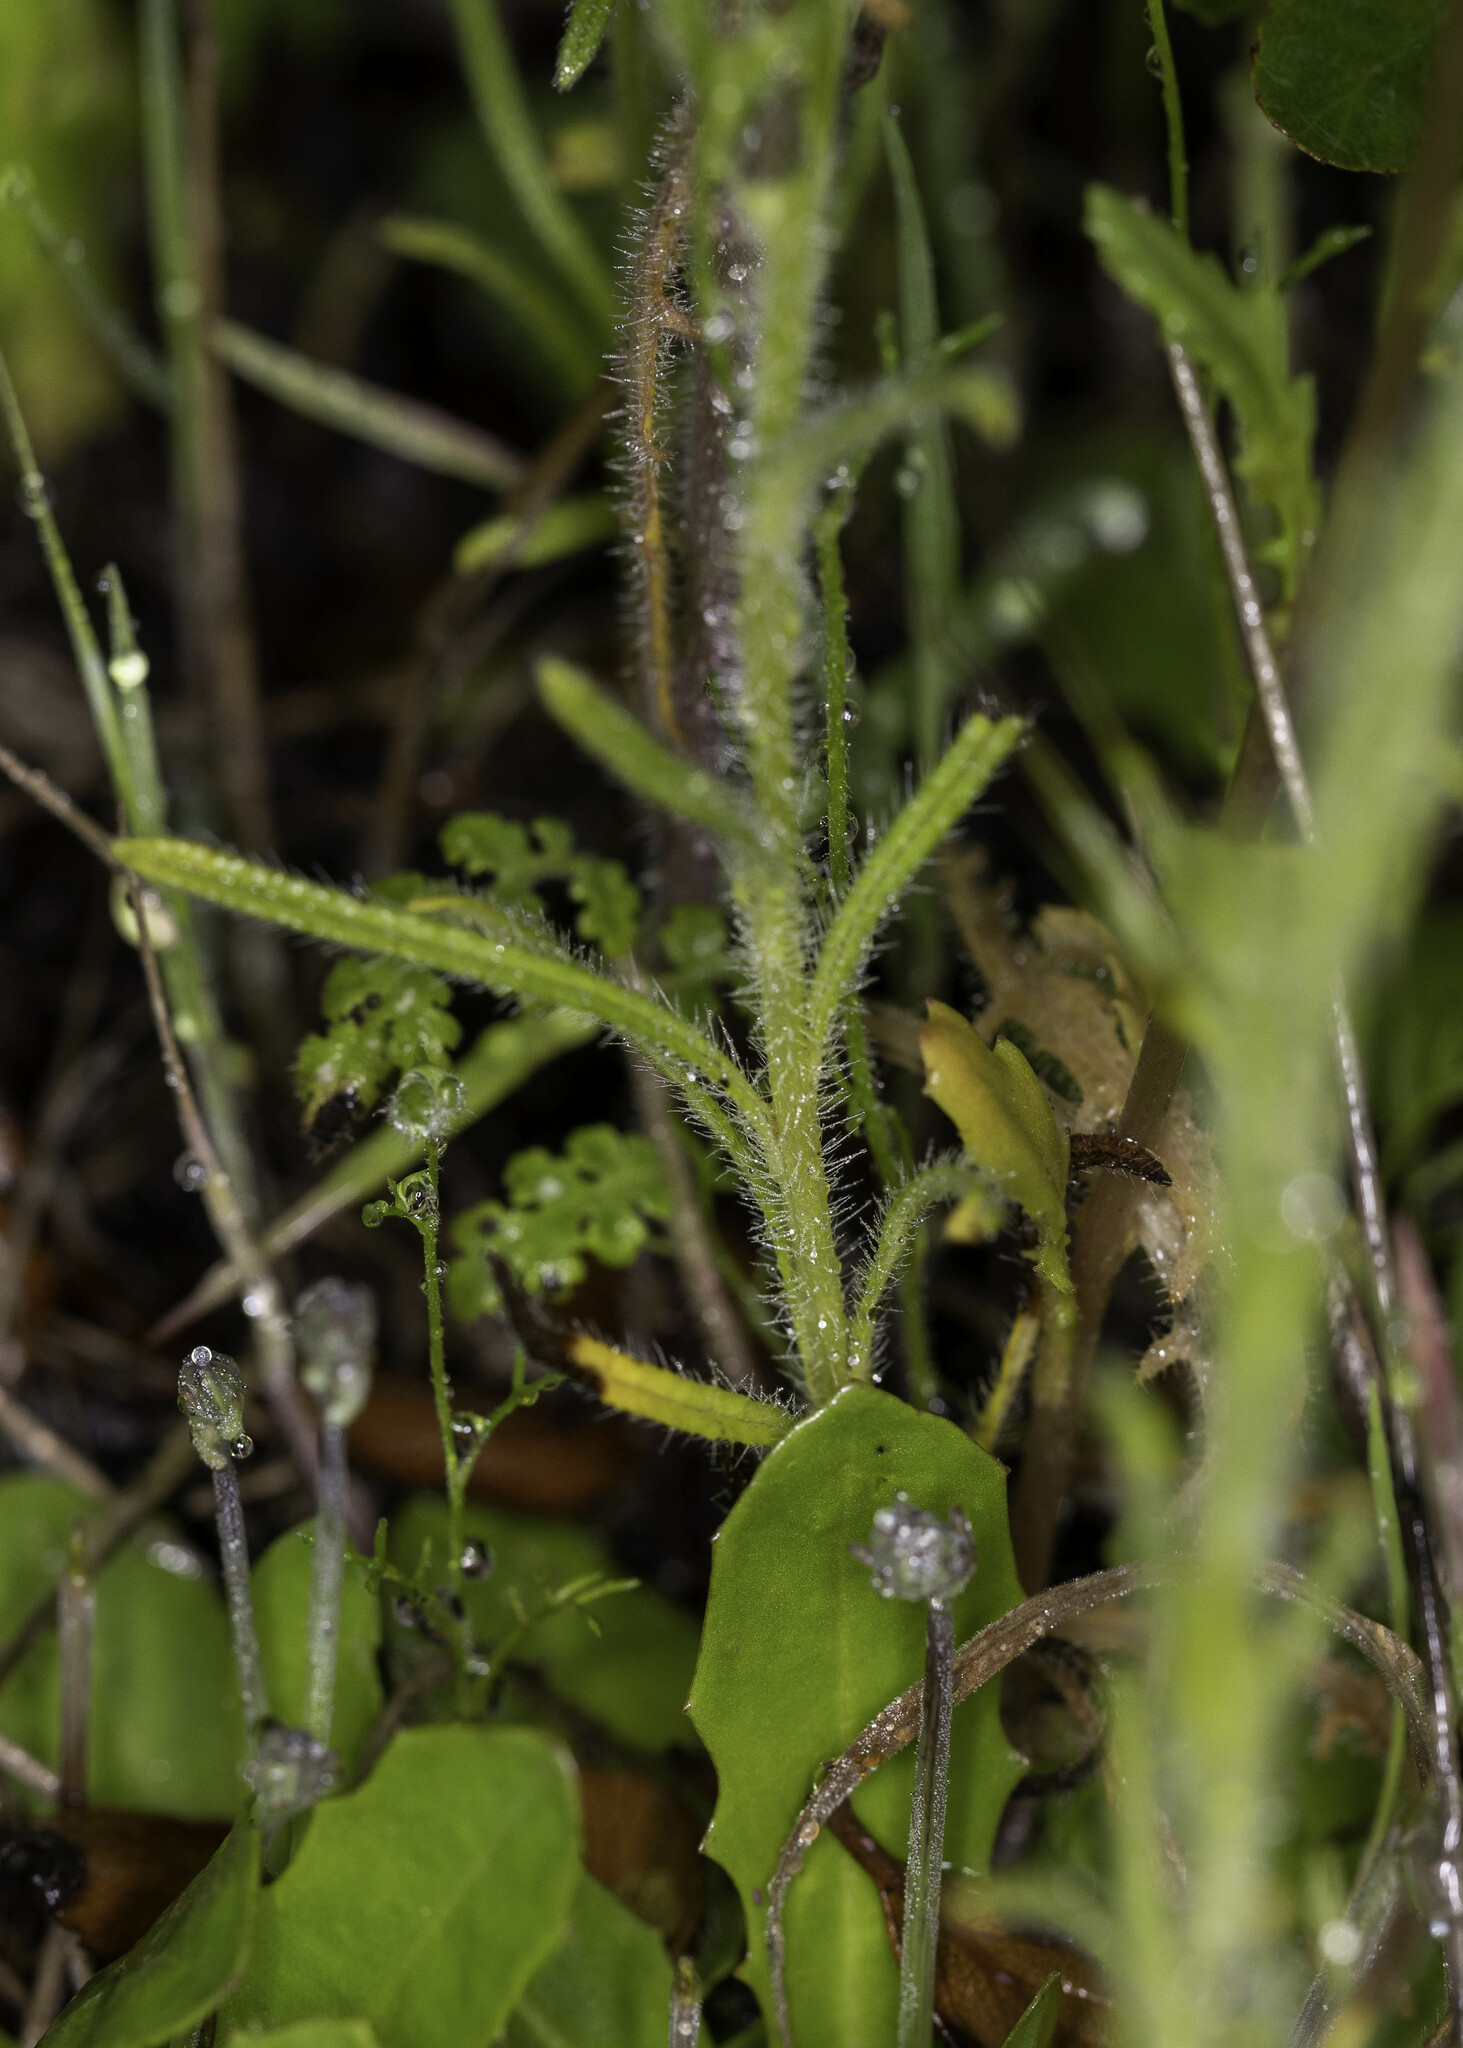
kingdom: Plantae
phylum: Tracheophyta
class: Magnoliopsida
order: Brassicales
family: Brassicaceae
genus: Streptanthus
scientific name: Streptanthus heterophyllus
